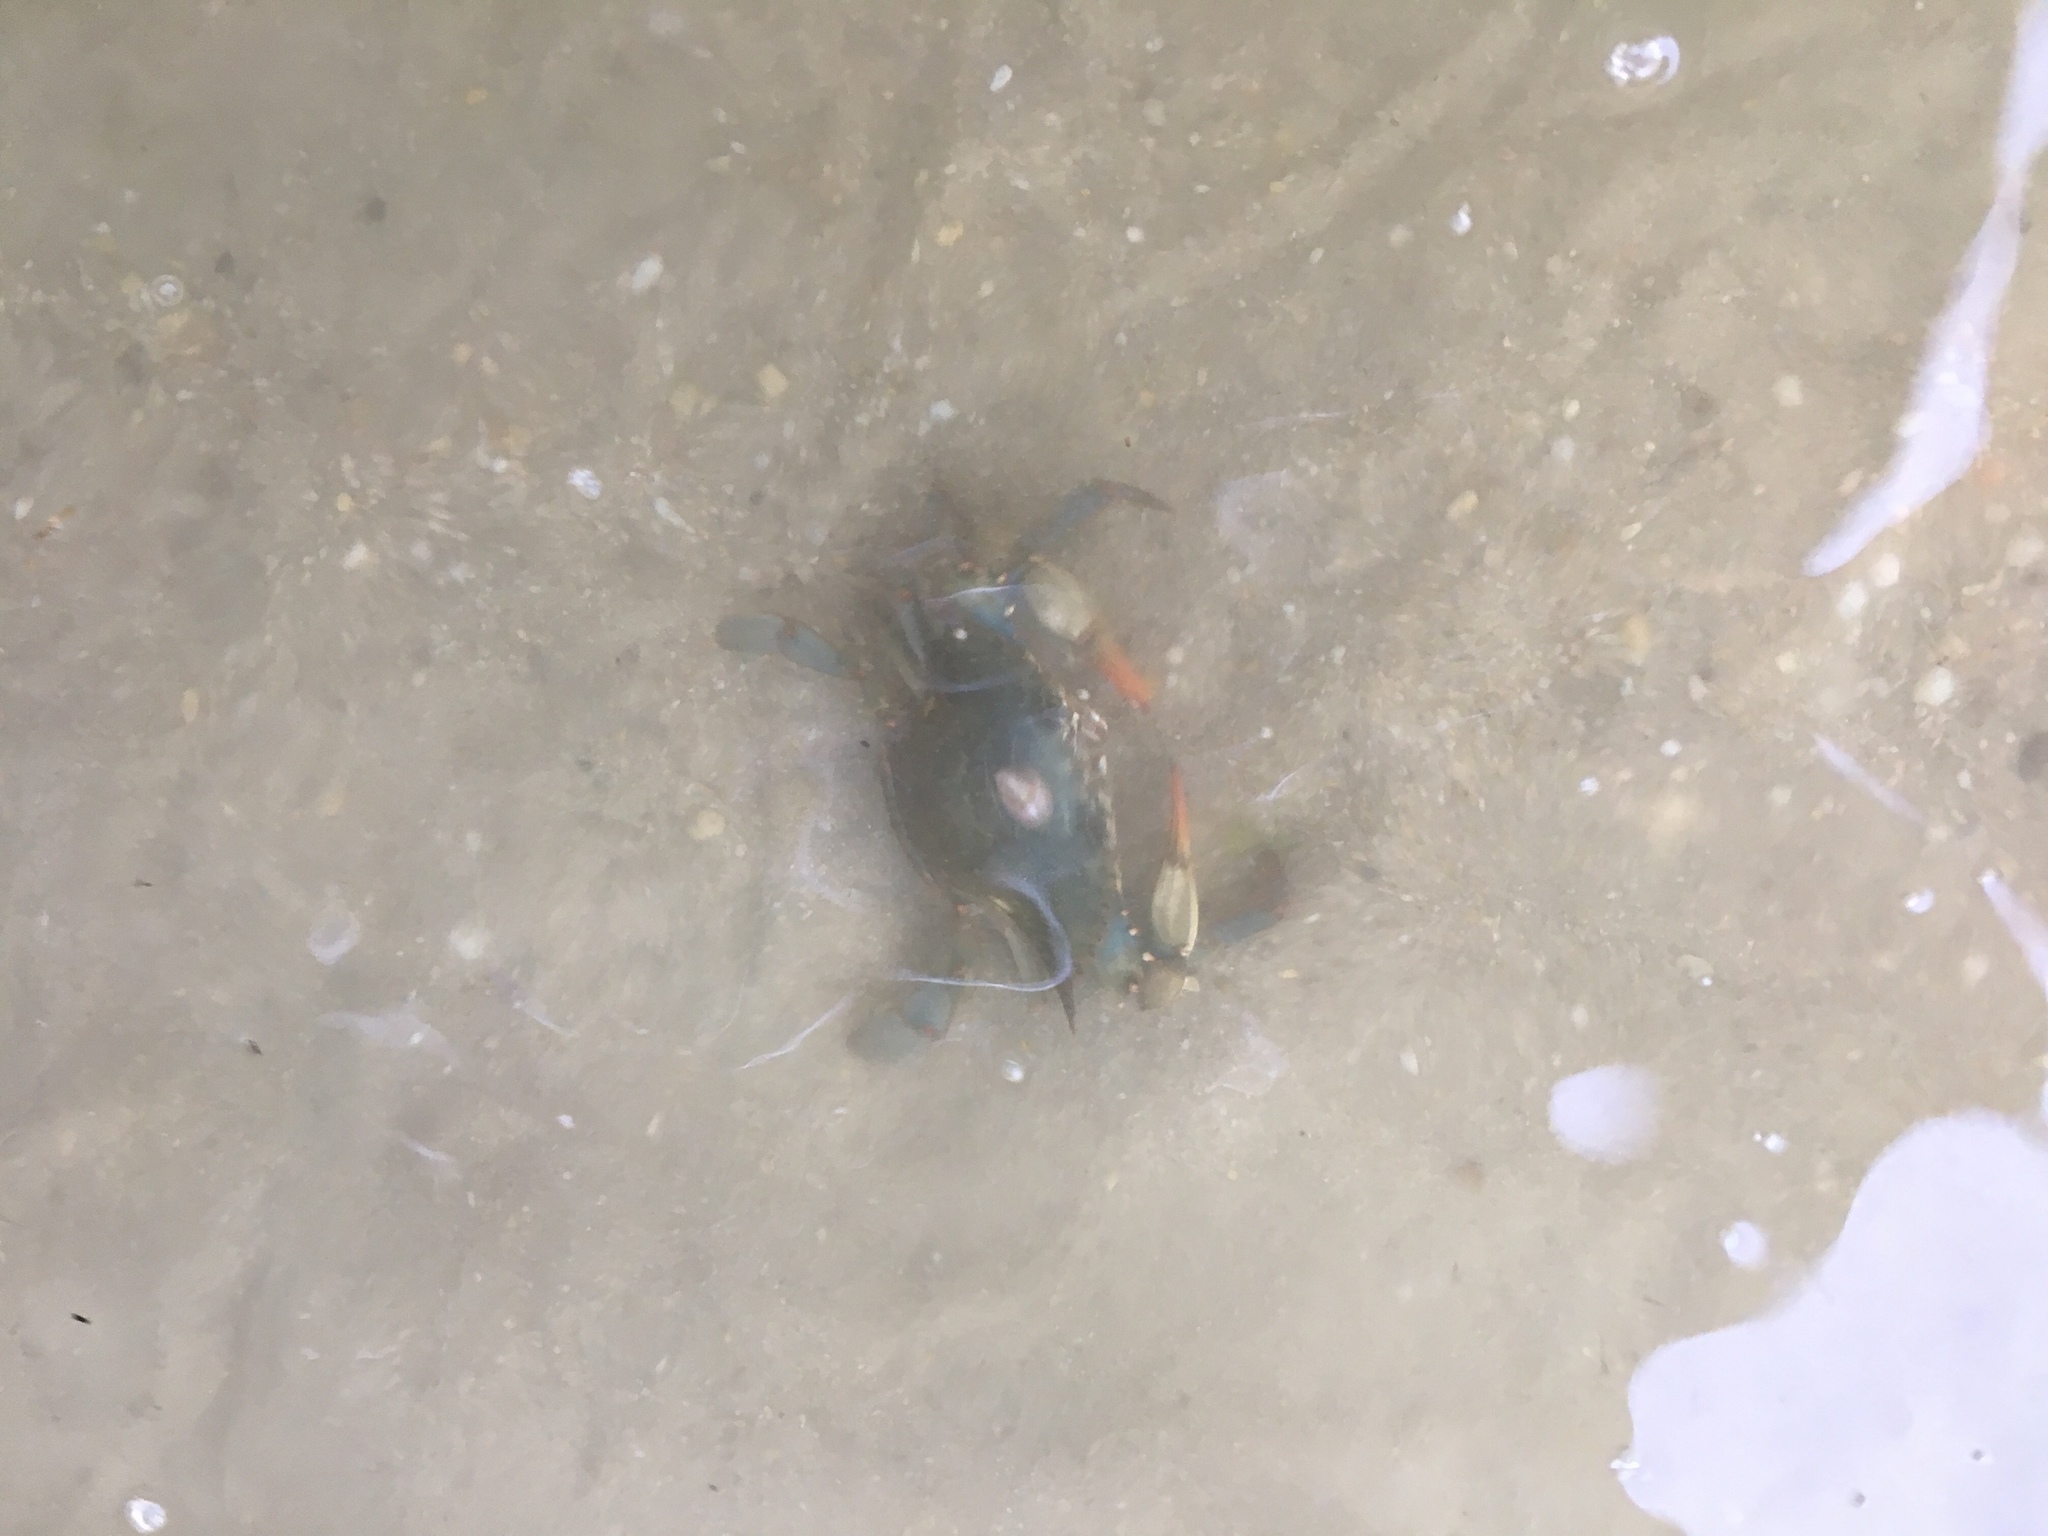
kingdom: Animalia
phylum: Arthropoda
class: Malacostraca
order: Decapoda
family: Portunidae
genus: Callinectes
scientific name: Callinectes sapidus
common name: Blue crab
